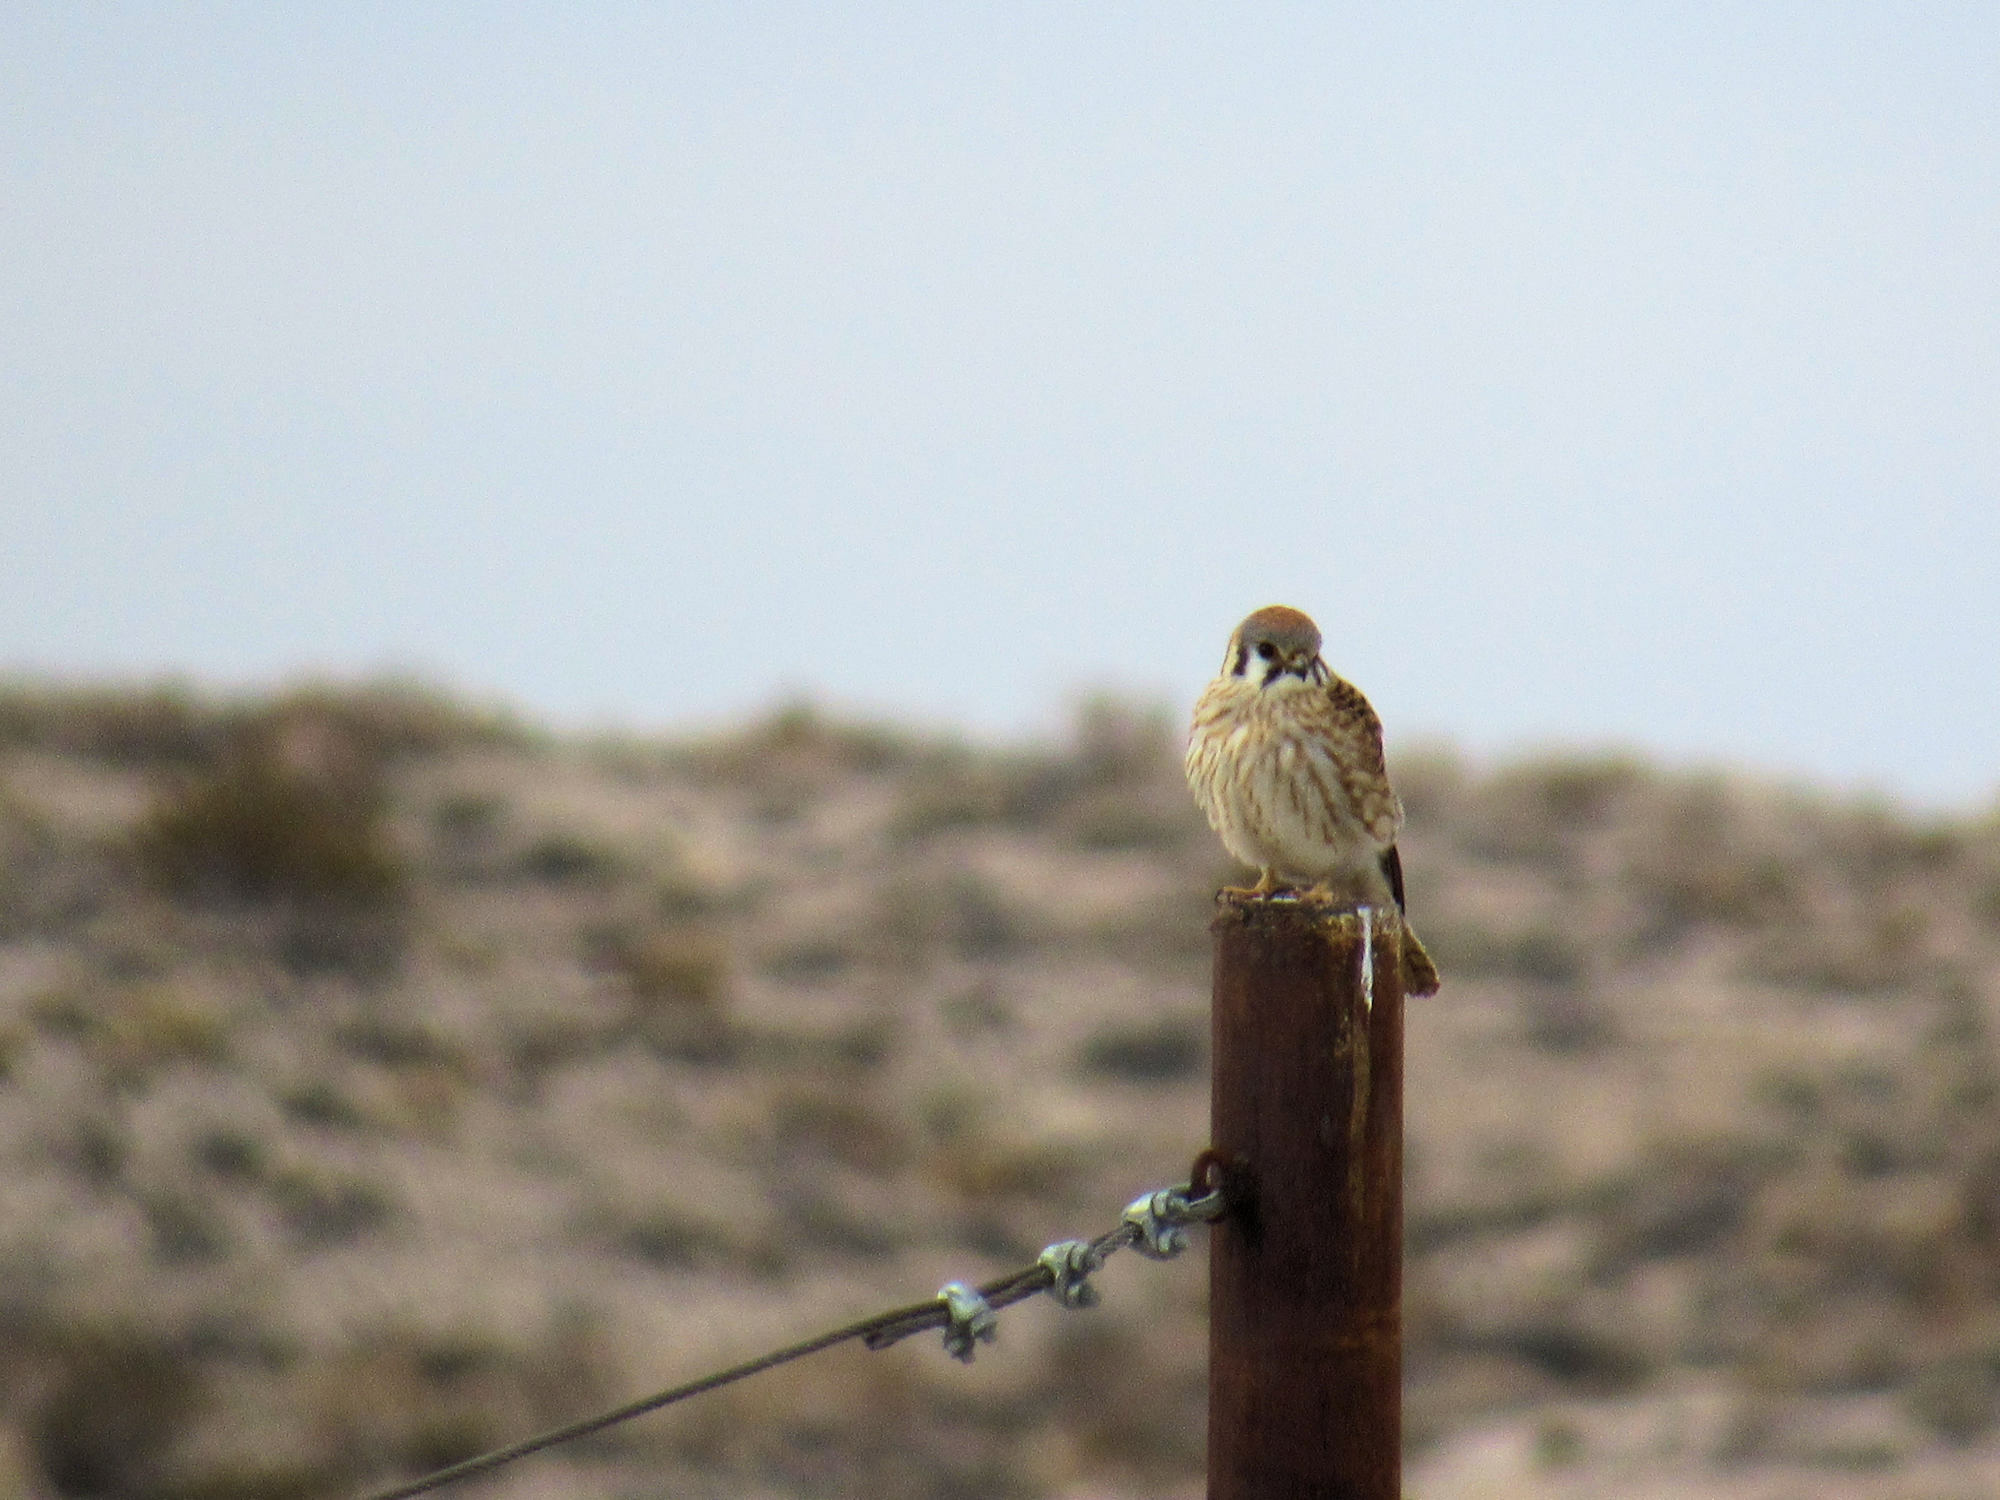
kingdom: Animalia
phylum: Chordata
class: Aves
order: Falconiformes
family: Falconidae
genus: Falco
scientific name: Falco sparverius
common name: American kestrel
